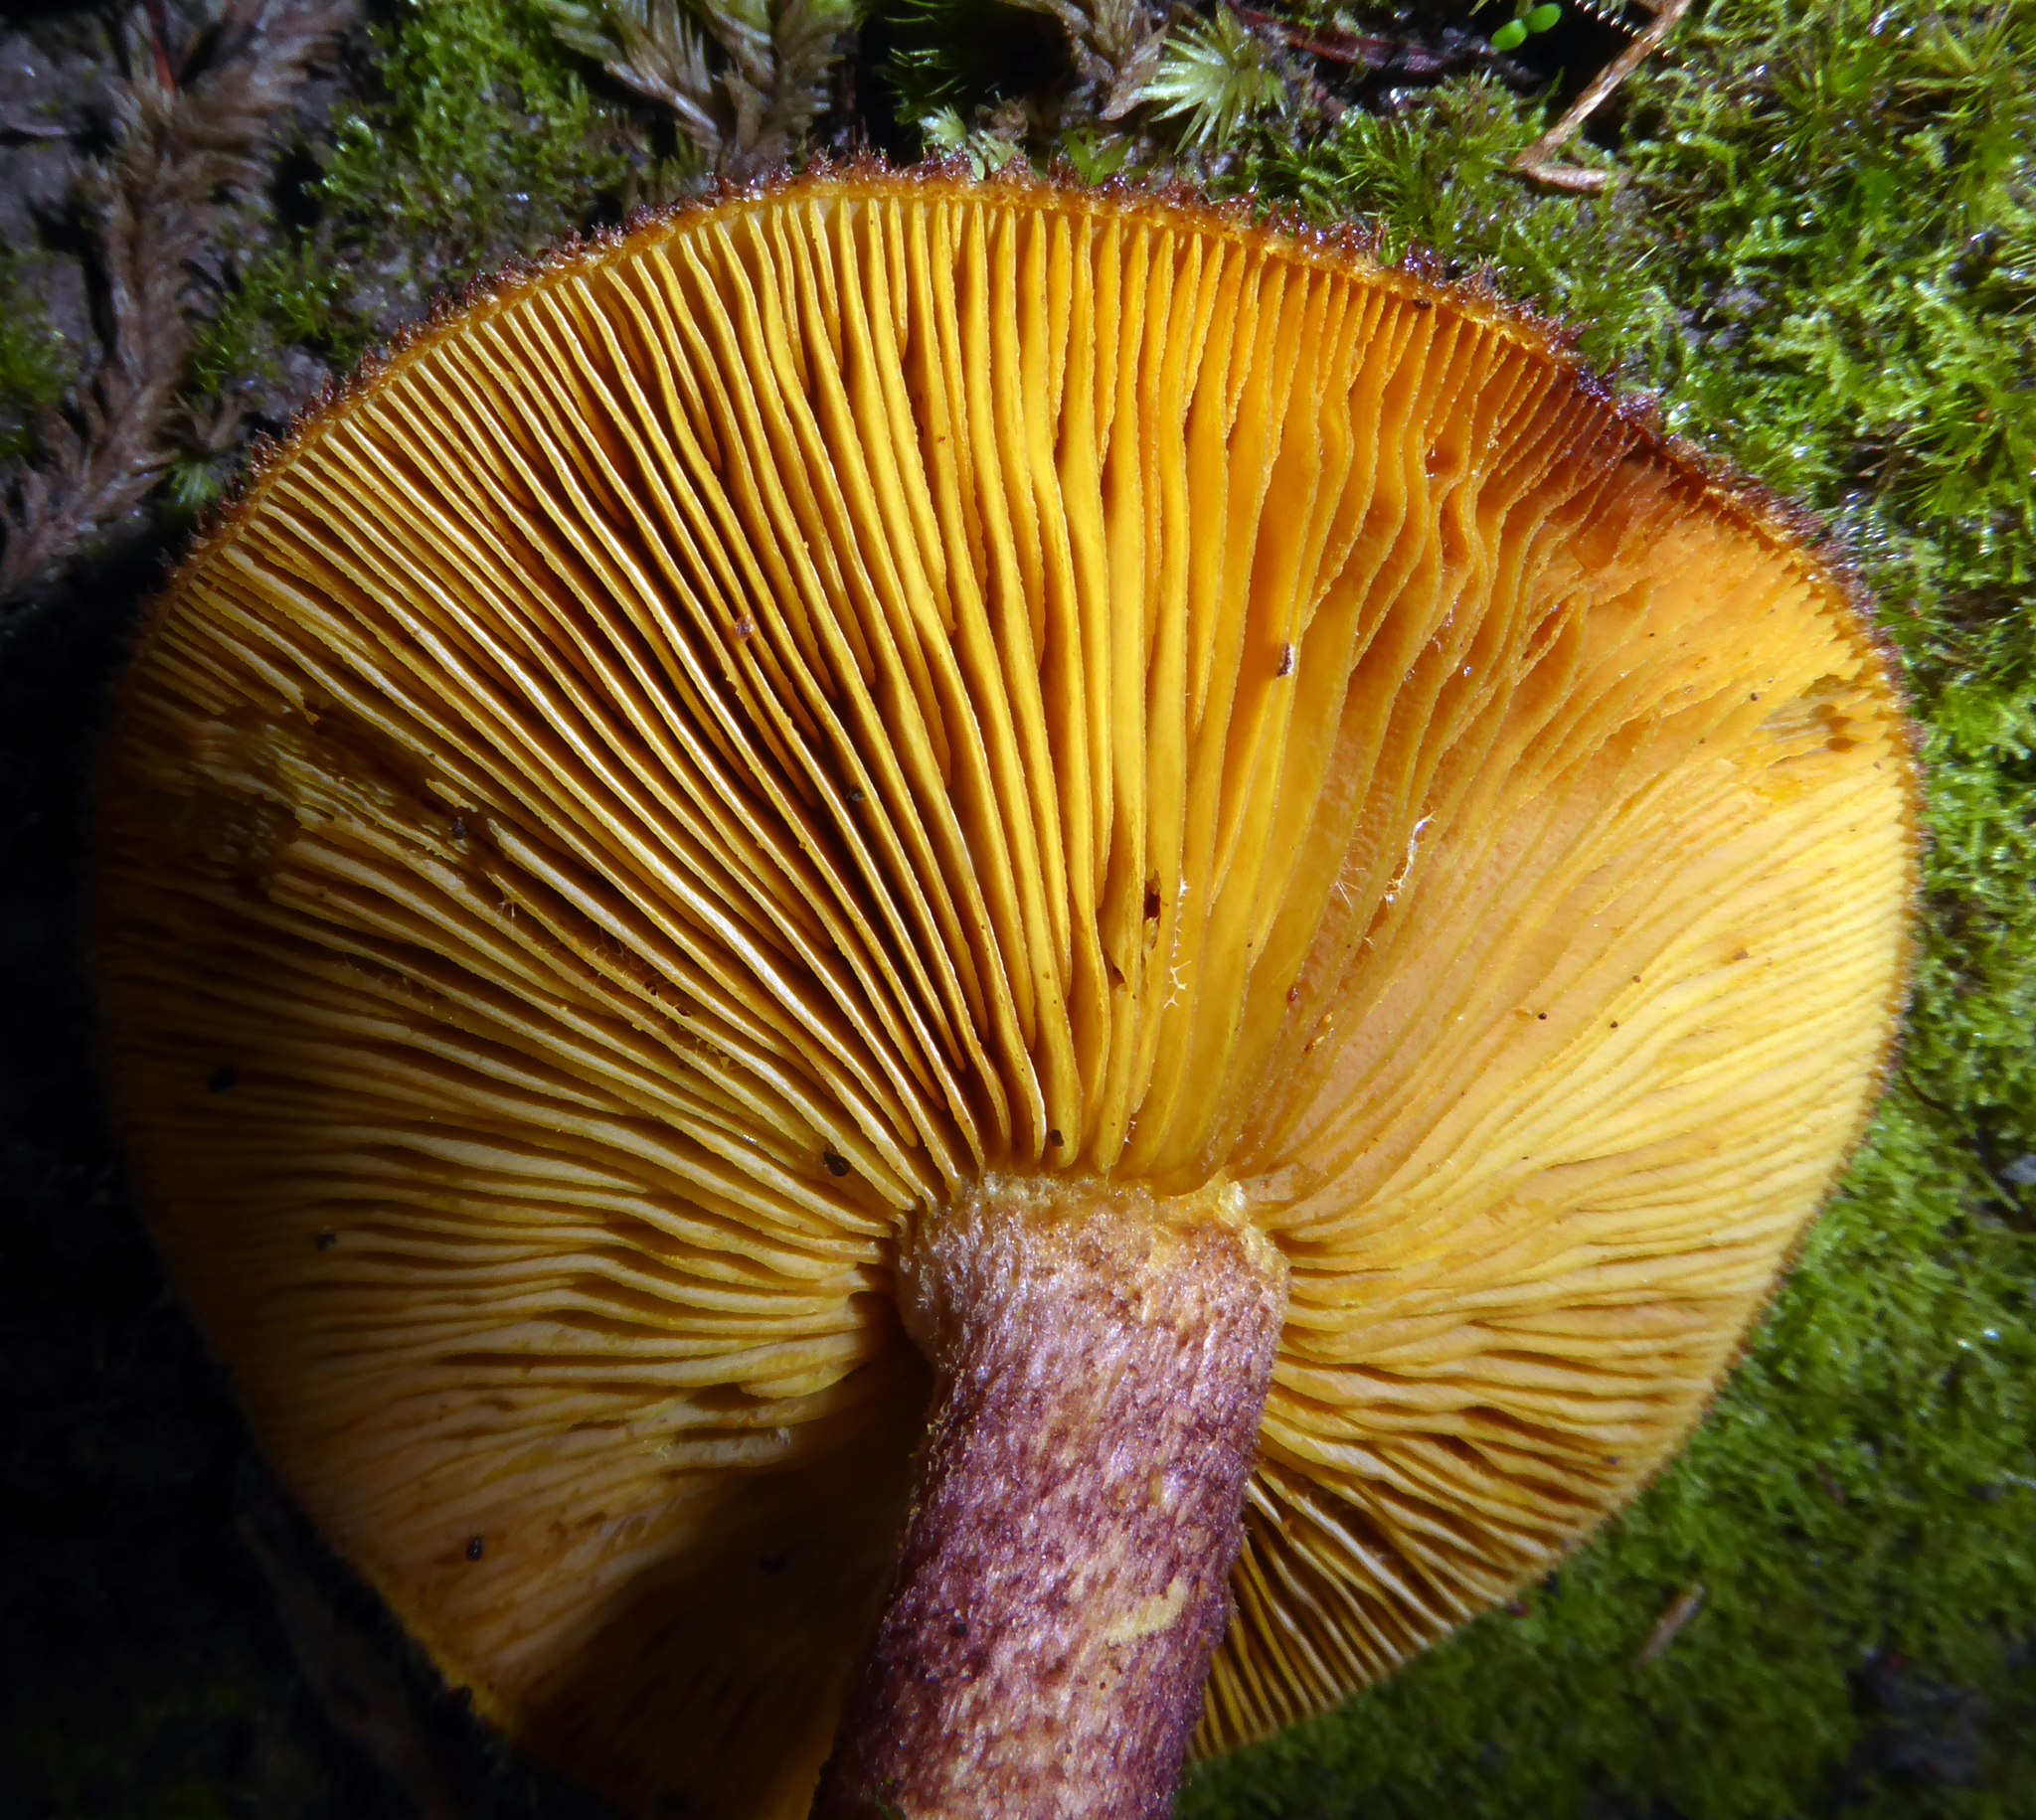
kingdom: Fungi
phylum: Basidiomycota
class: Agaricomycetes
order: Agaricales
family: Tricholomataceae
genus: Tricholomopsis
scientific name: Tricholomopsis scabra
